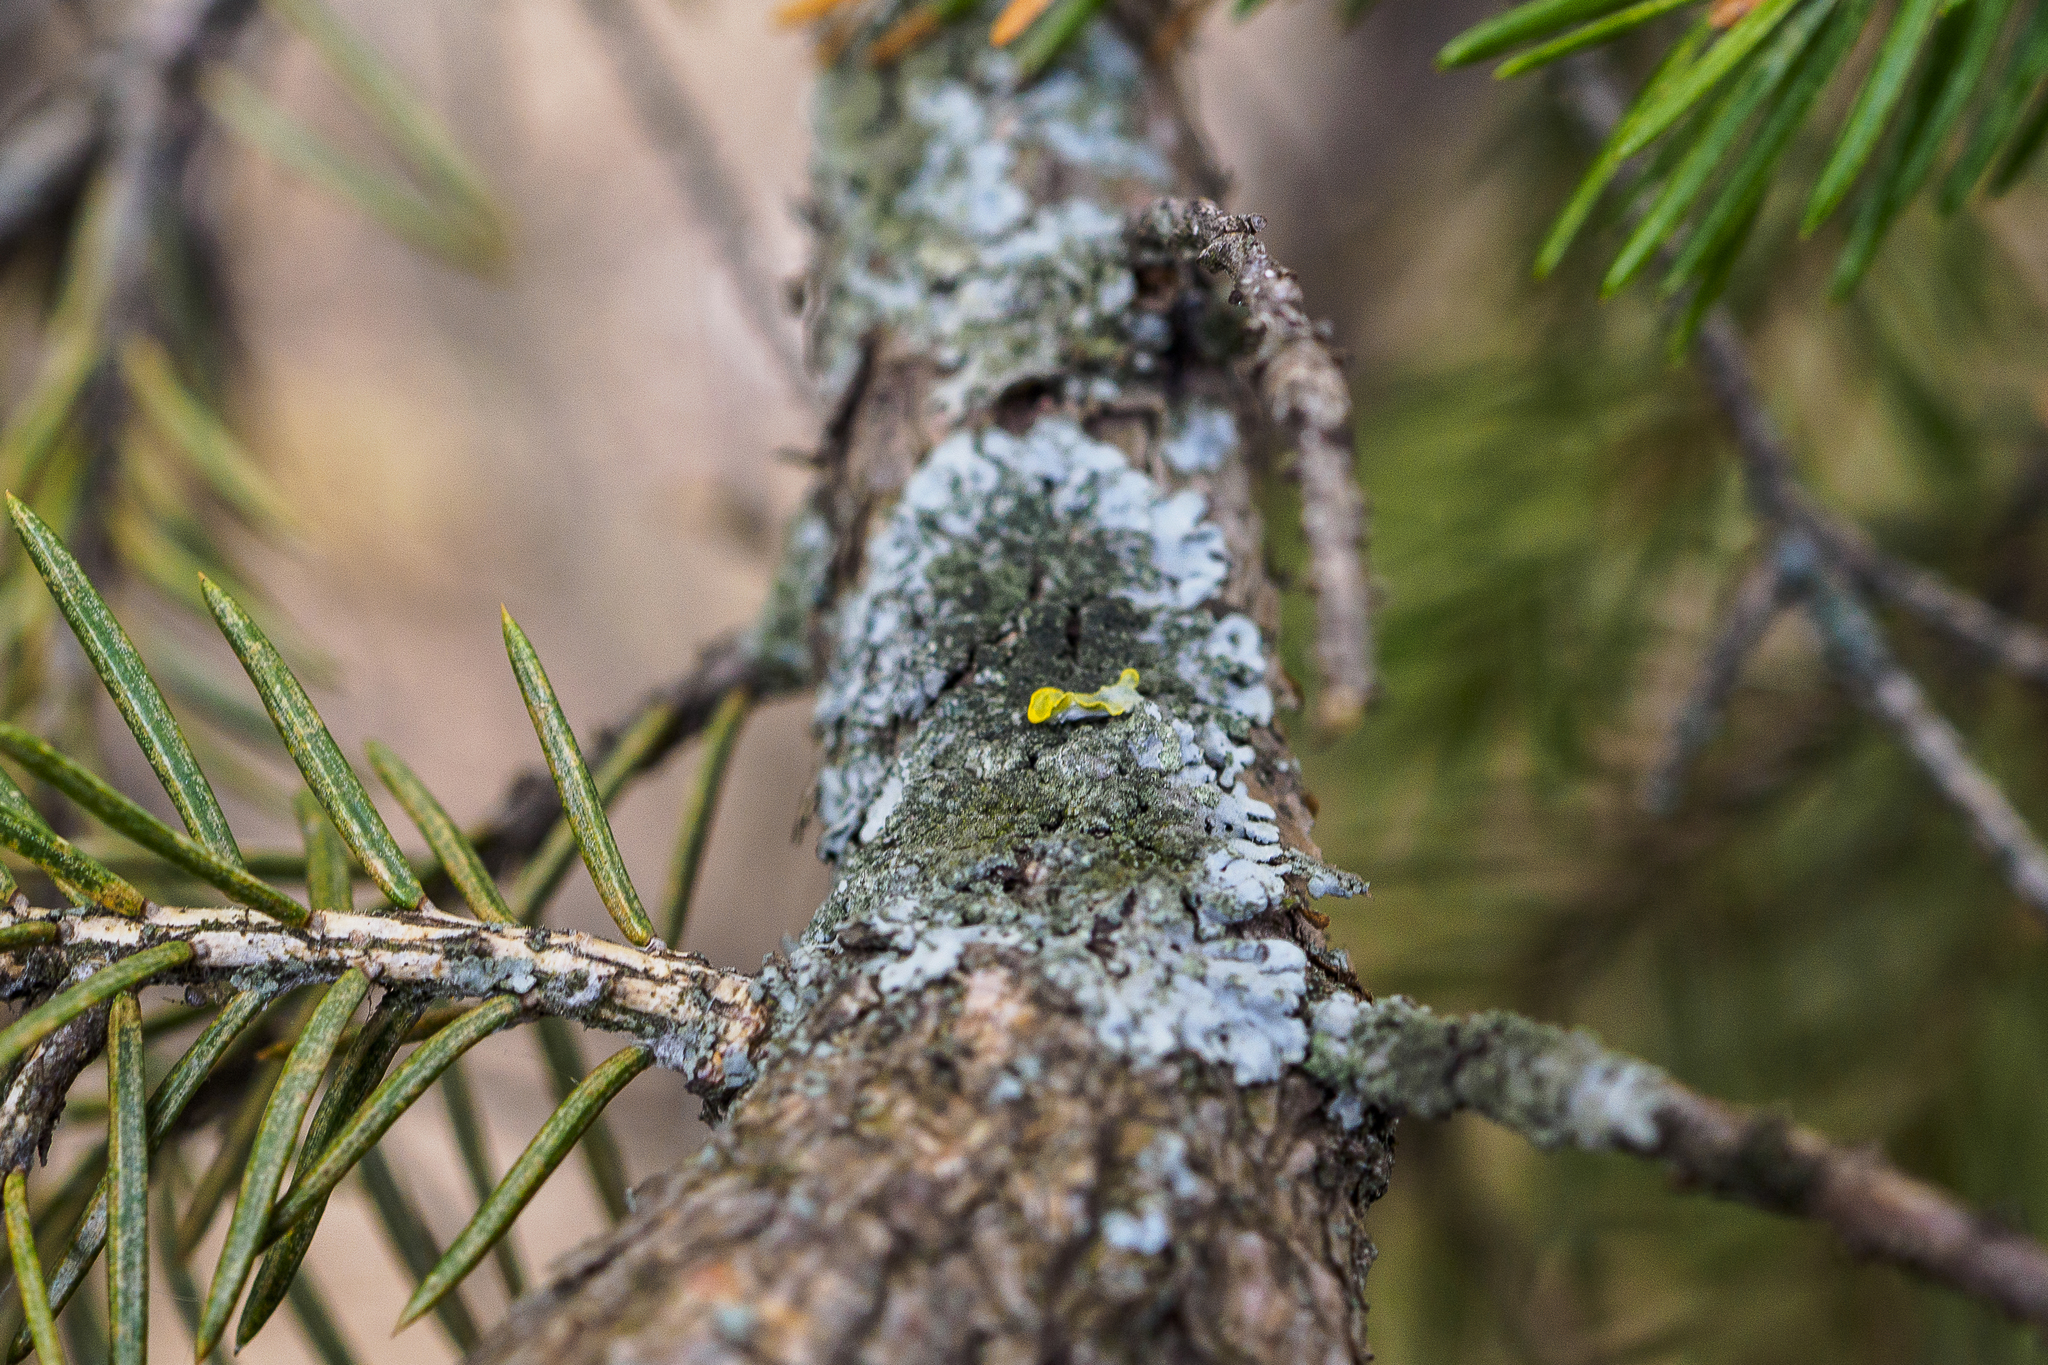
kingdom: Fungi
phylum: Ascomycota
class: Lecanoromycetes
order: Caliciales
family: Physciaceae
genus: Phaeophyscia
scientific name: Phaeophyscia orbicularis
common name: Mealy shadow lichen
